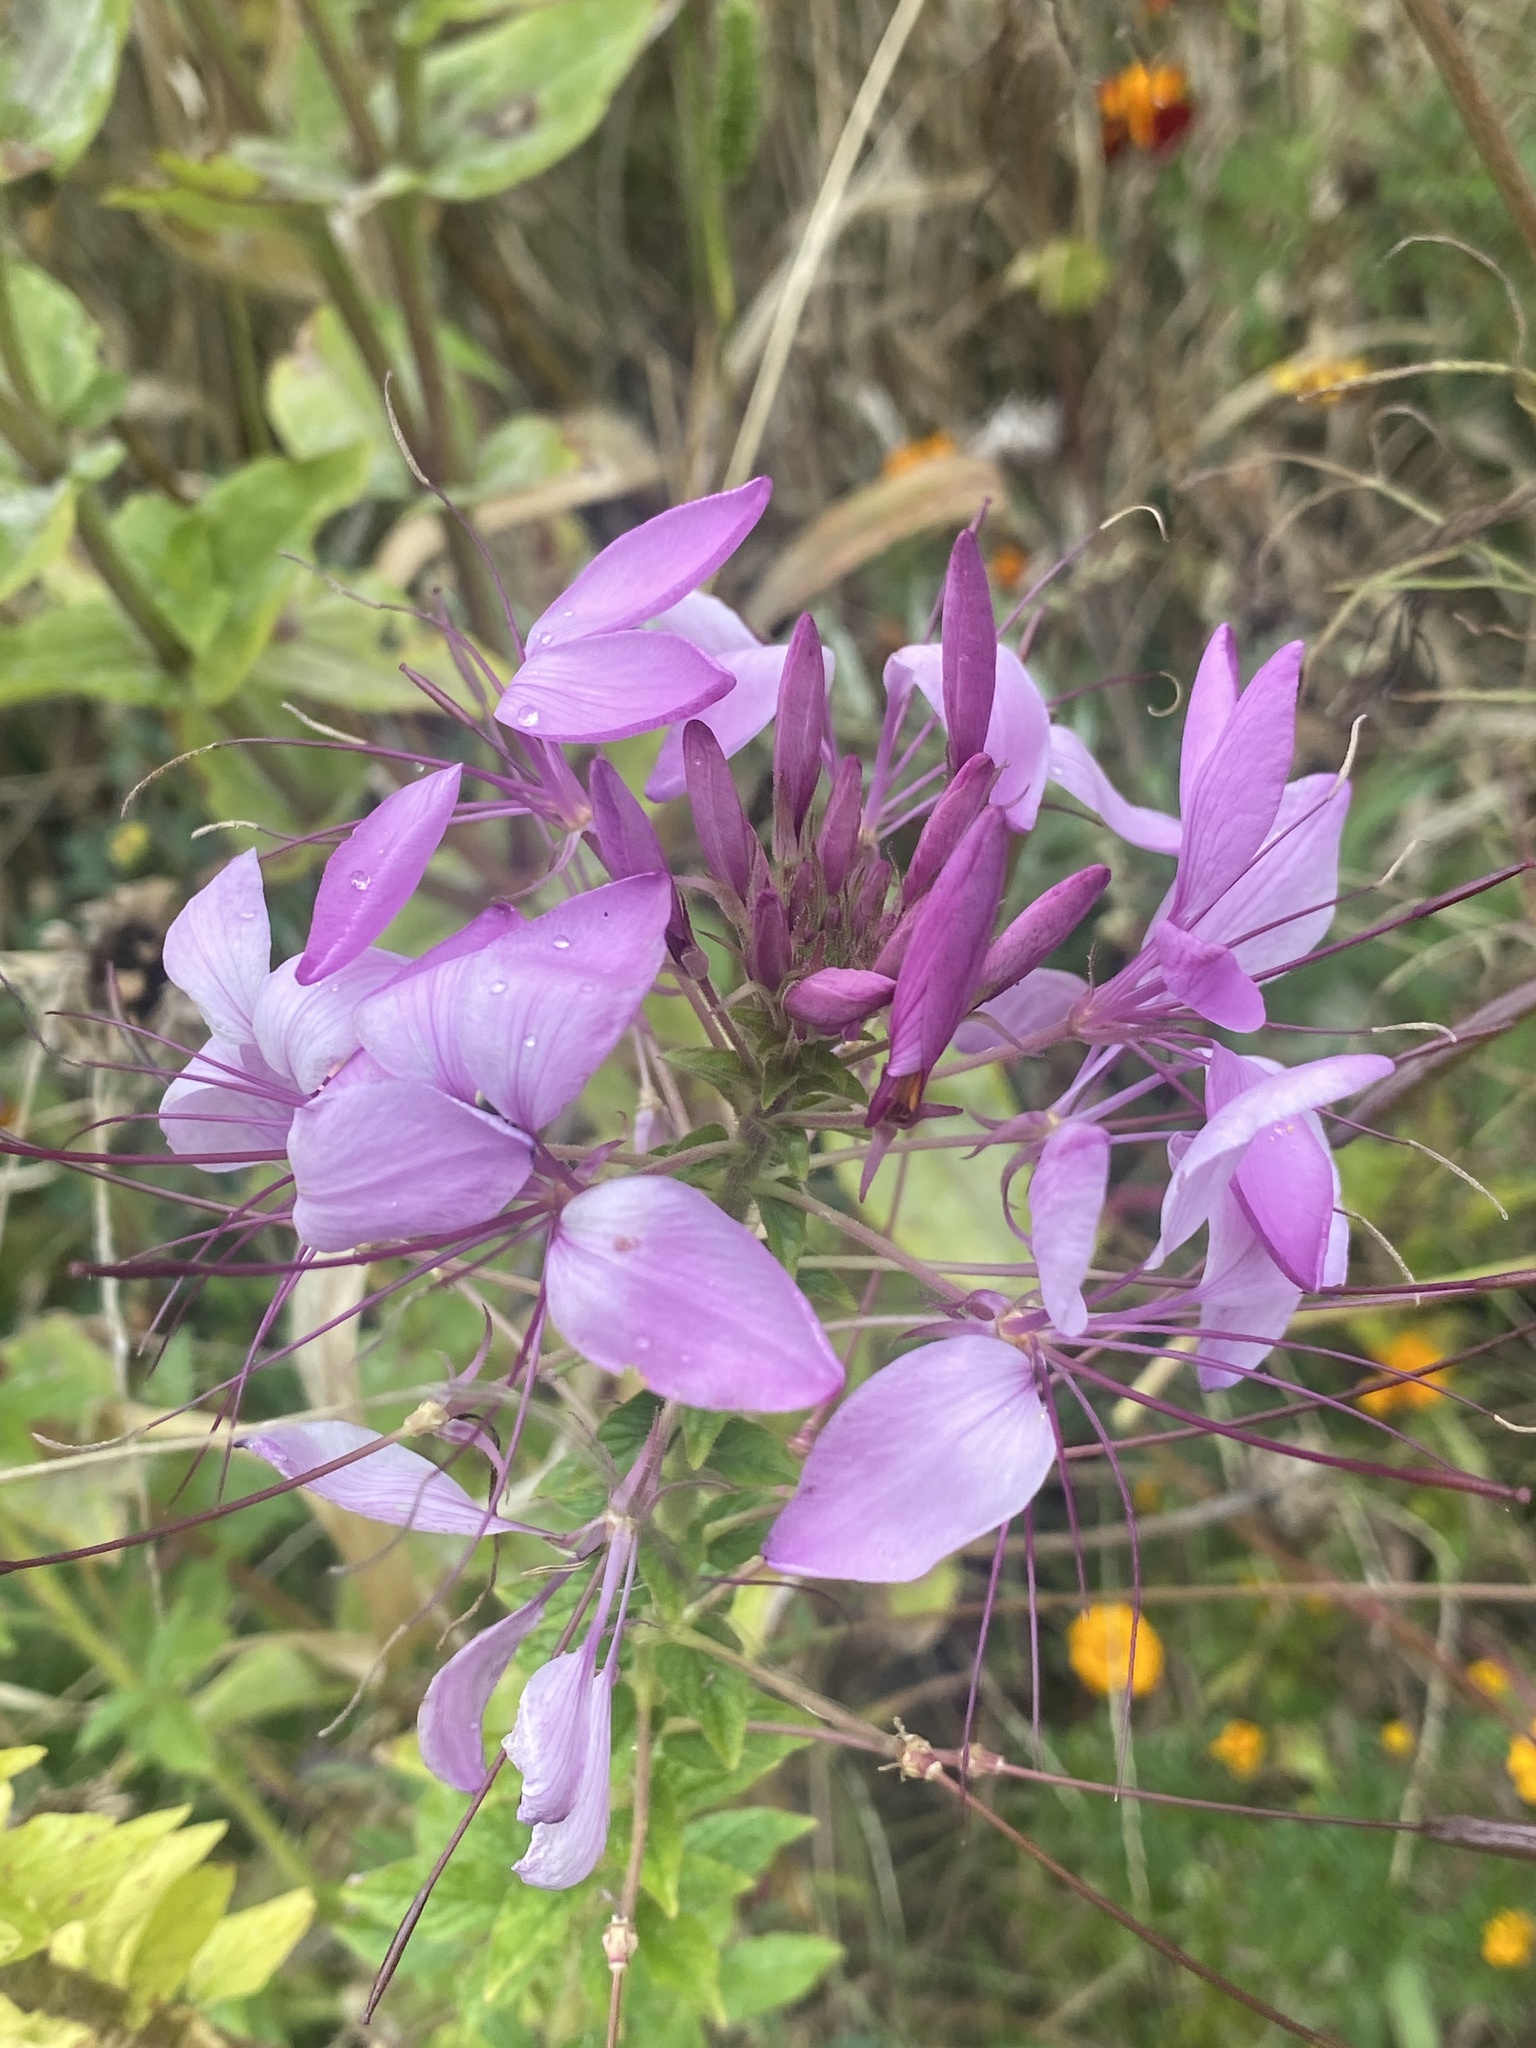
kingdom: Plantae
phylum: Tracheophyta
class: Magnoliopsida
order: Brassicales
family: Cleomaceae
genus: Tarenaya
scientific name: Tarenaya houtteana
